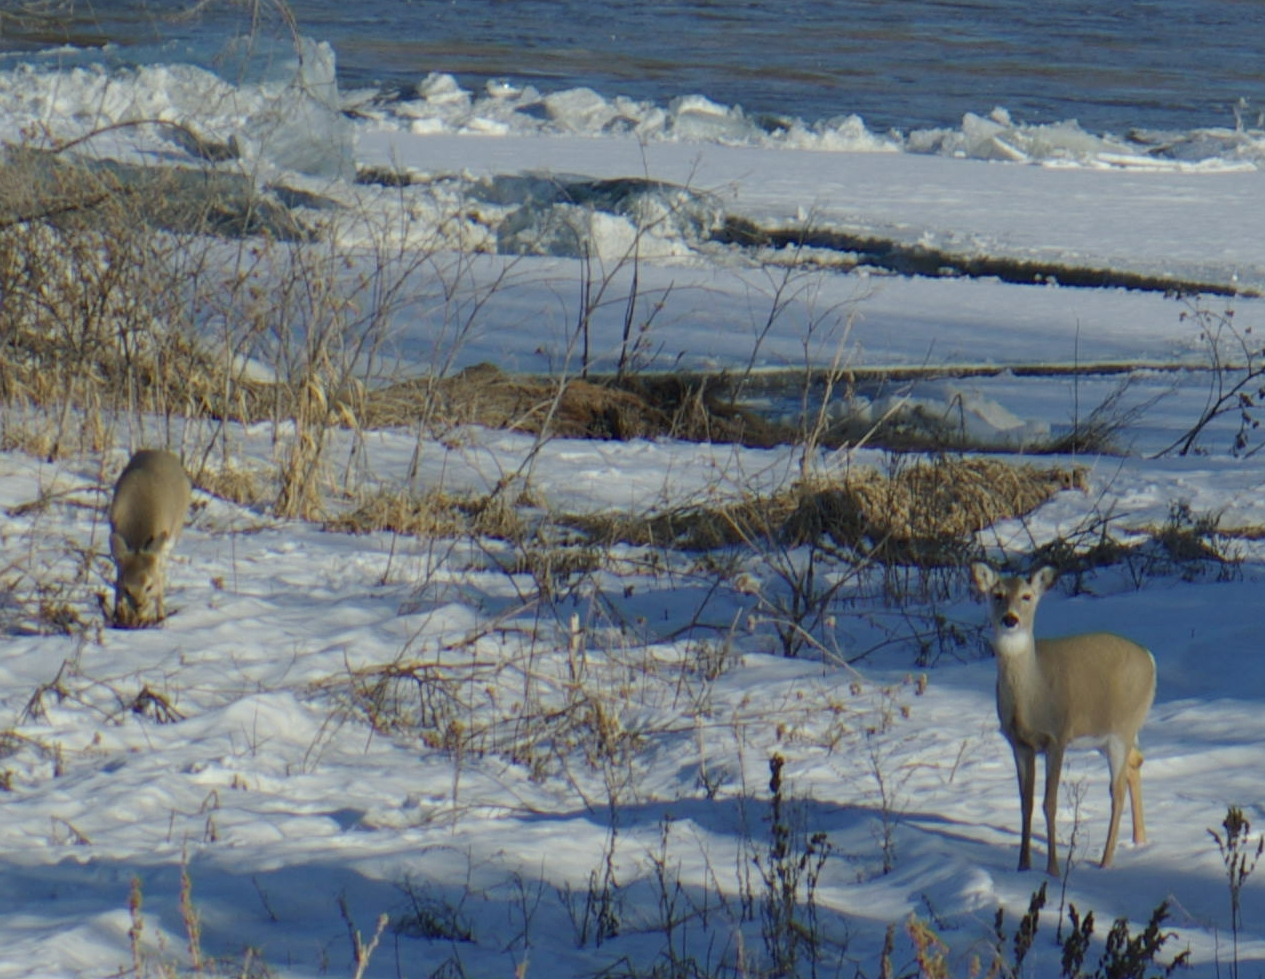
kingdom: Animalia
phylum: Chordata
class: Mammalia
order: Artiodactyla
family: Cervidae
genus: Odocoileus
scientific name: Odocoileus virginianus
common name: White-tailed deer
